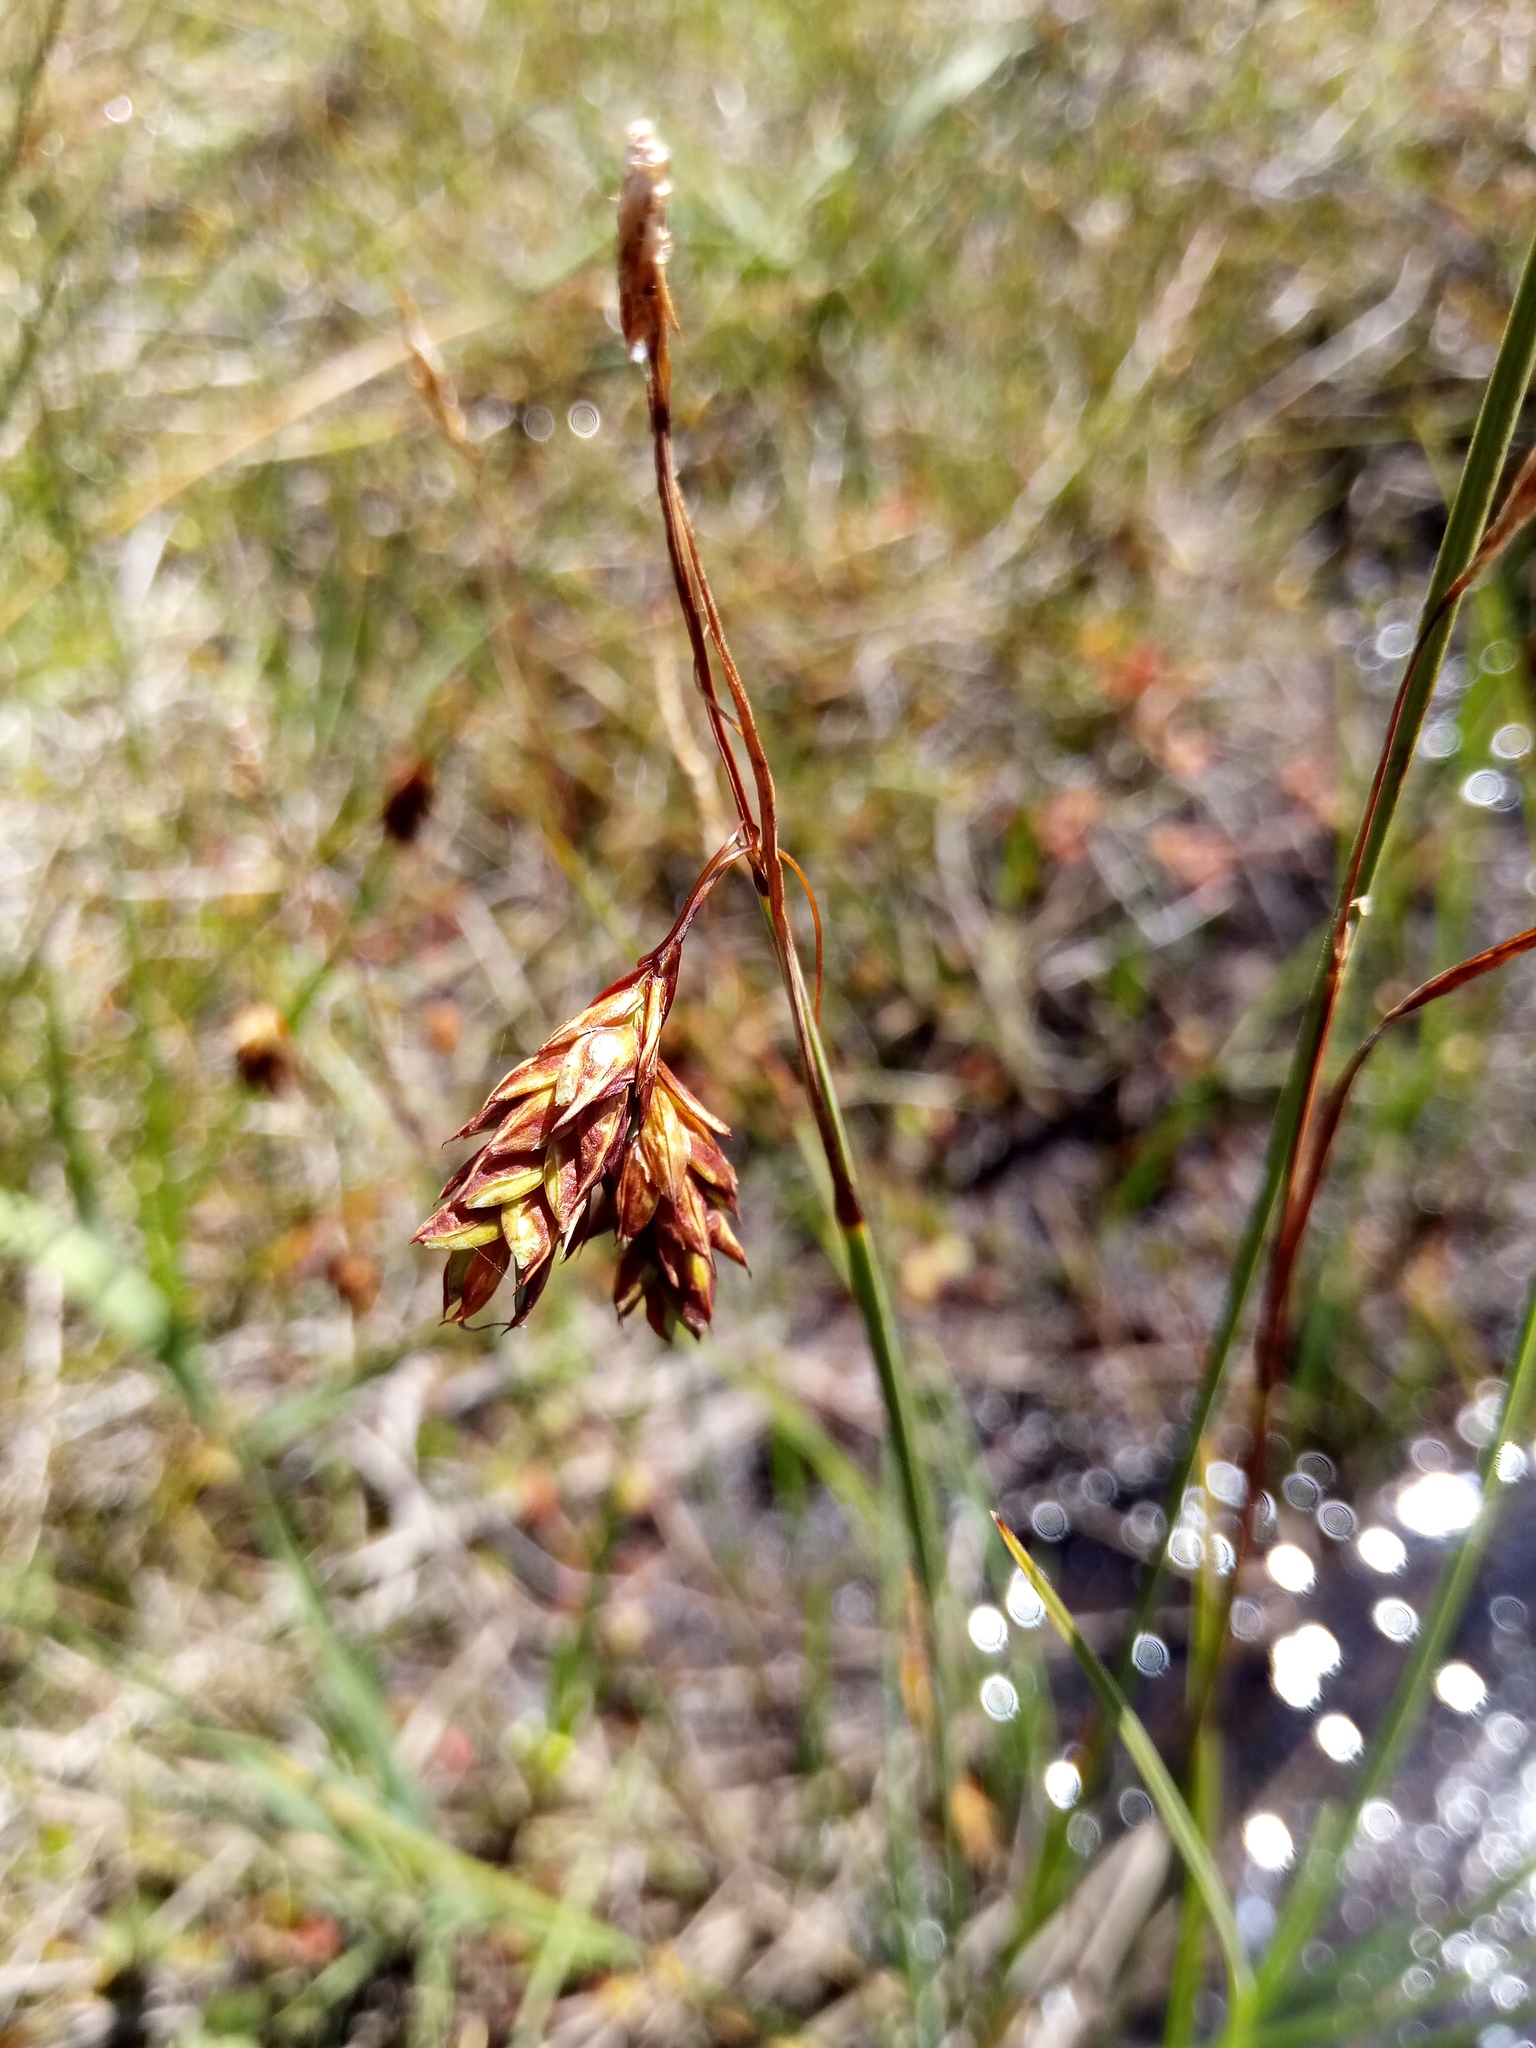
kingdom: Plantae
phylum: Tracheophyta
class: Liliopsida
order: Poales
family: Cyperaceae
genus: Carex
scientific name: Carex limosa
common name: Bog sedge
